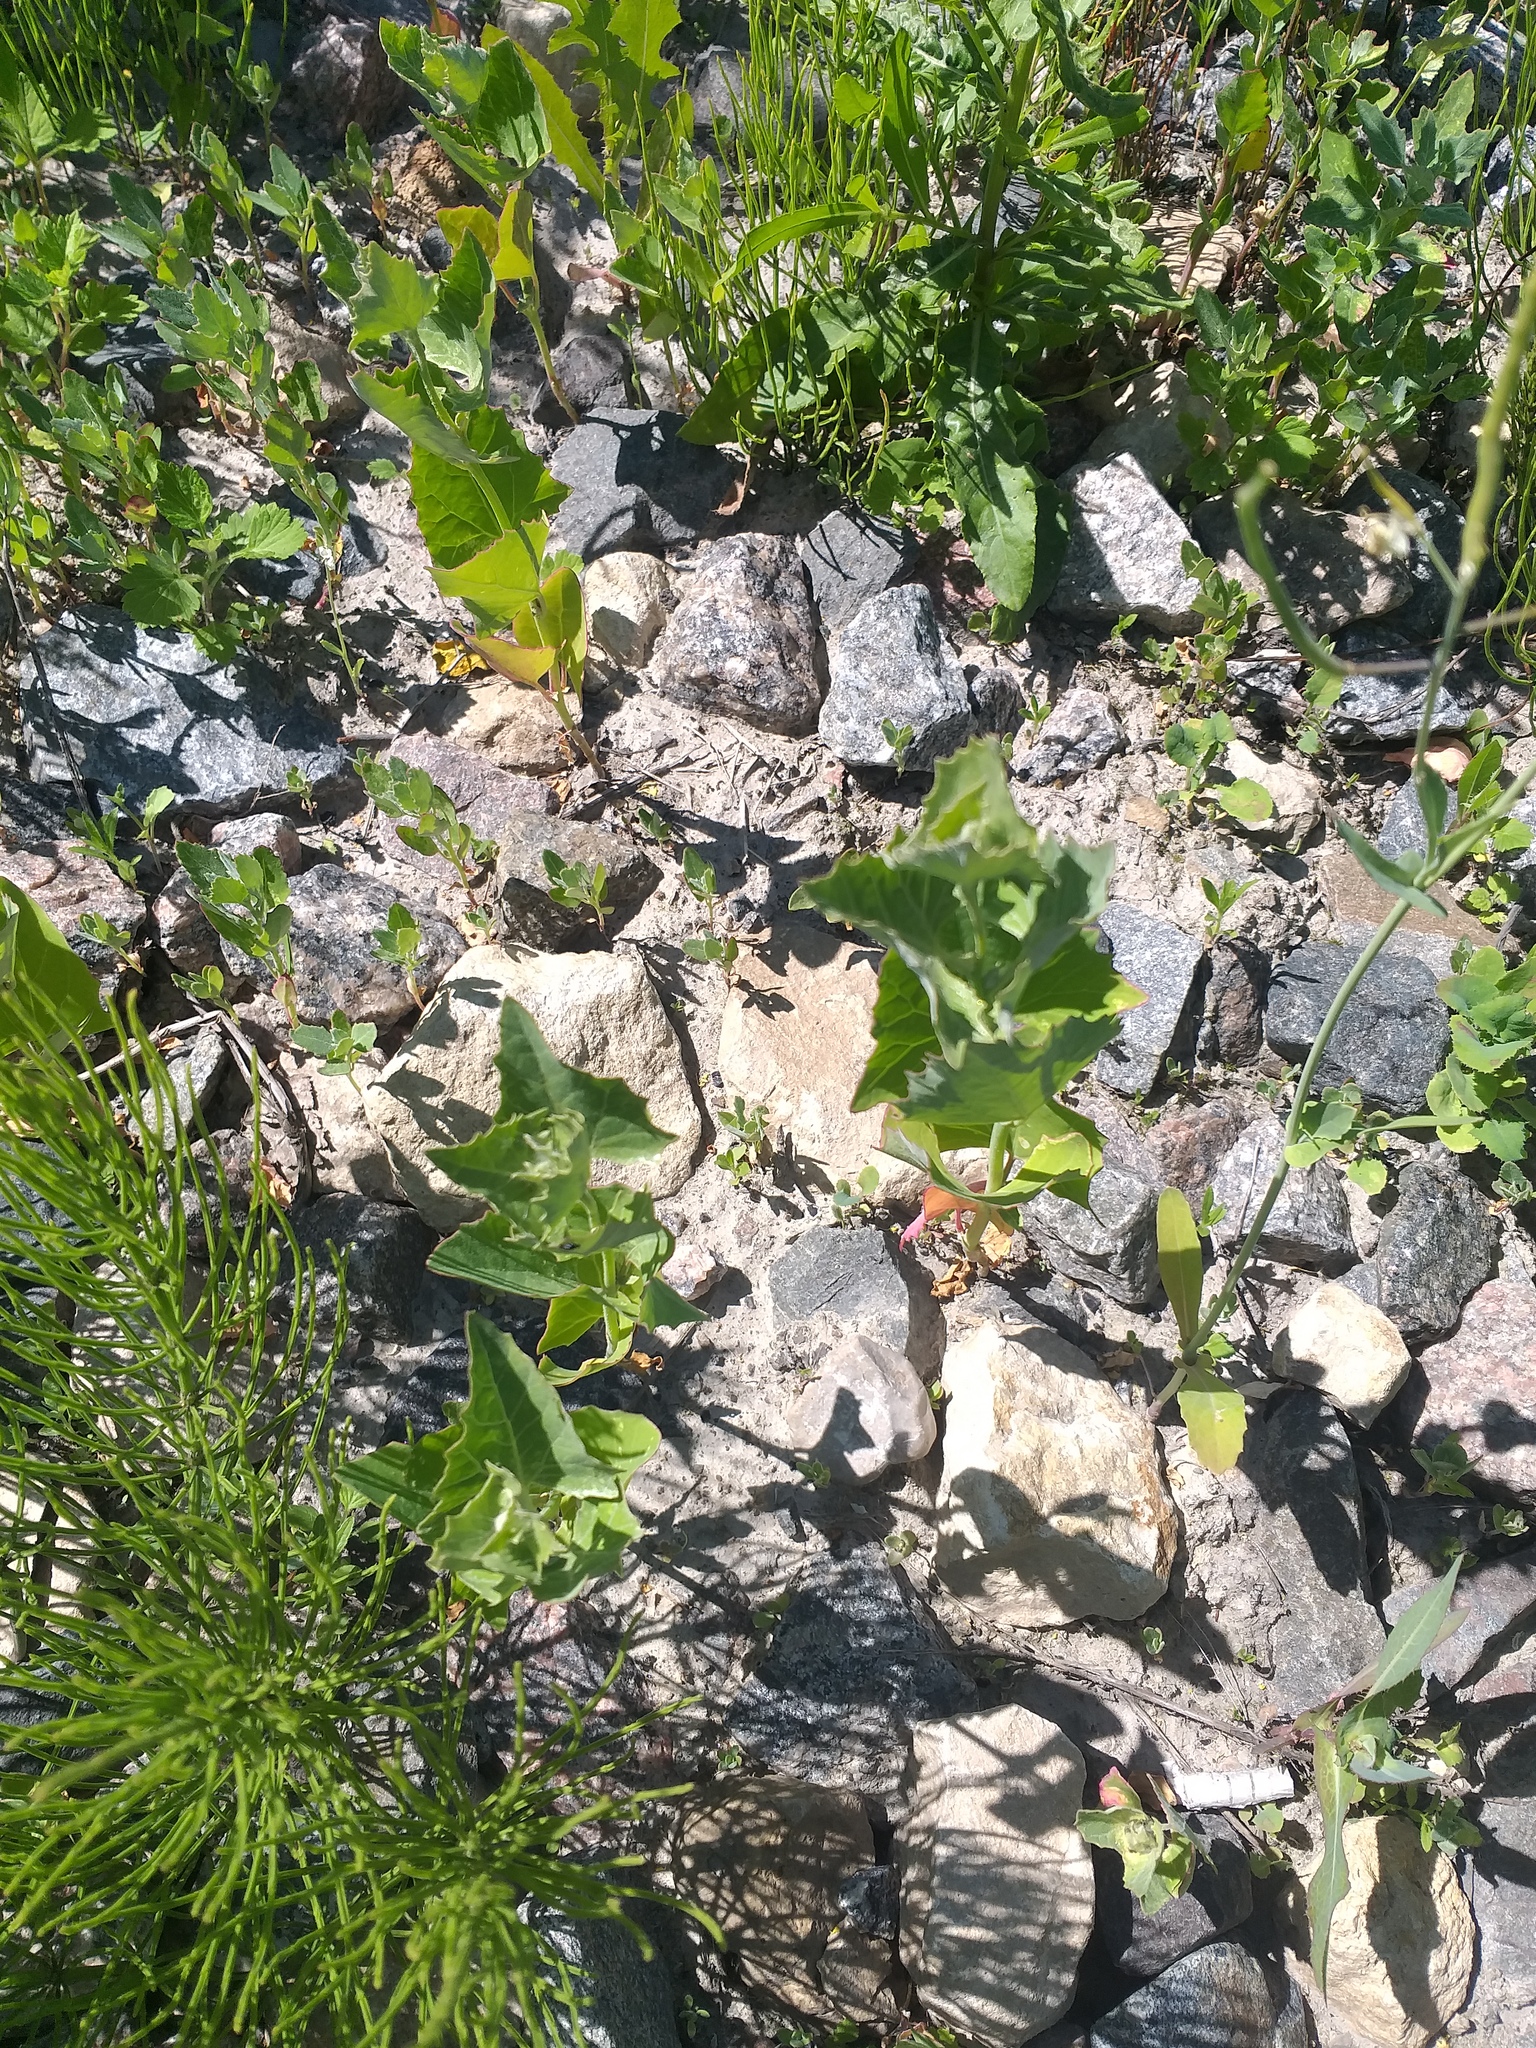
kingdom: Plantae
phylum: Tracheophyta
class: Magnoliopsida
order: Caryophyllales
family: Amaranthaceae
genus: Atriplex
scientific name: Atriplex sagittata
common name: Purple orache
